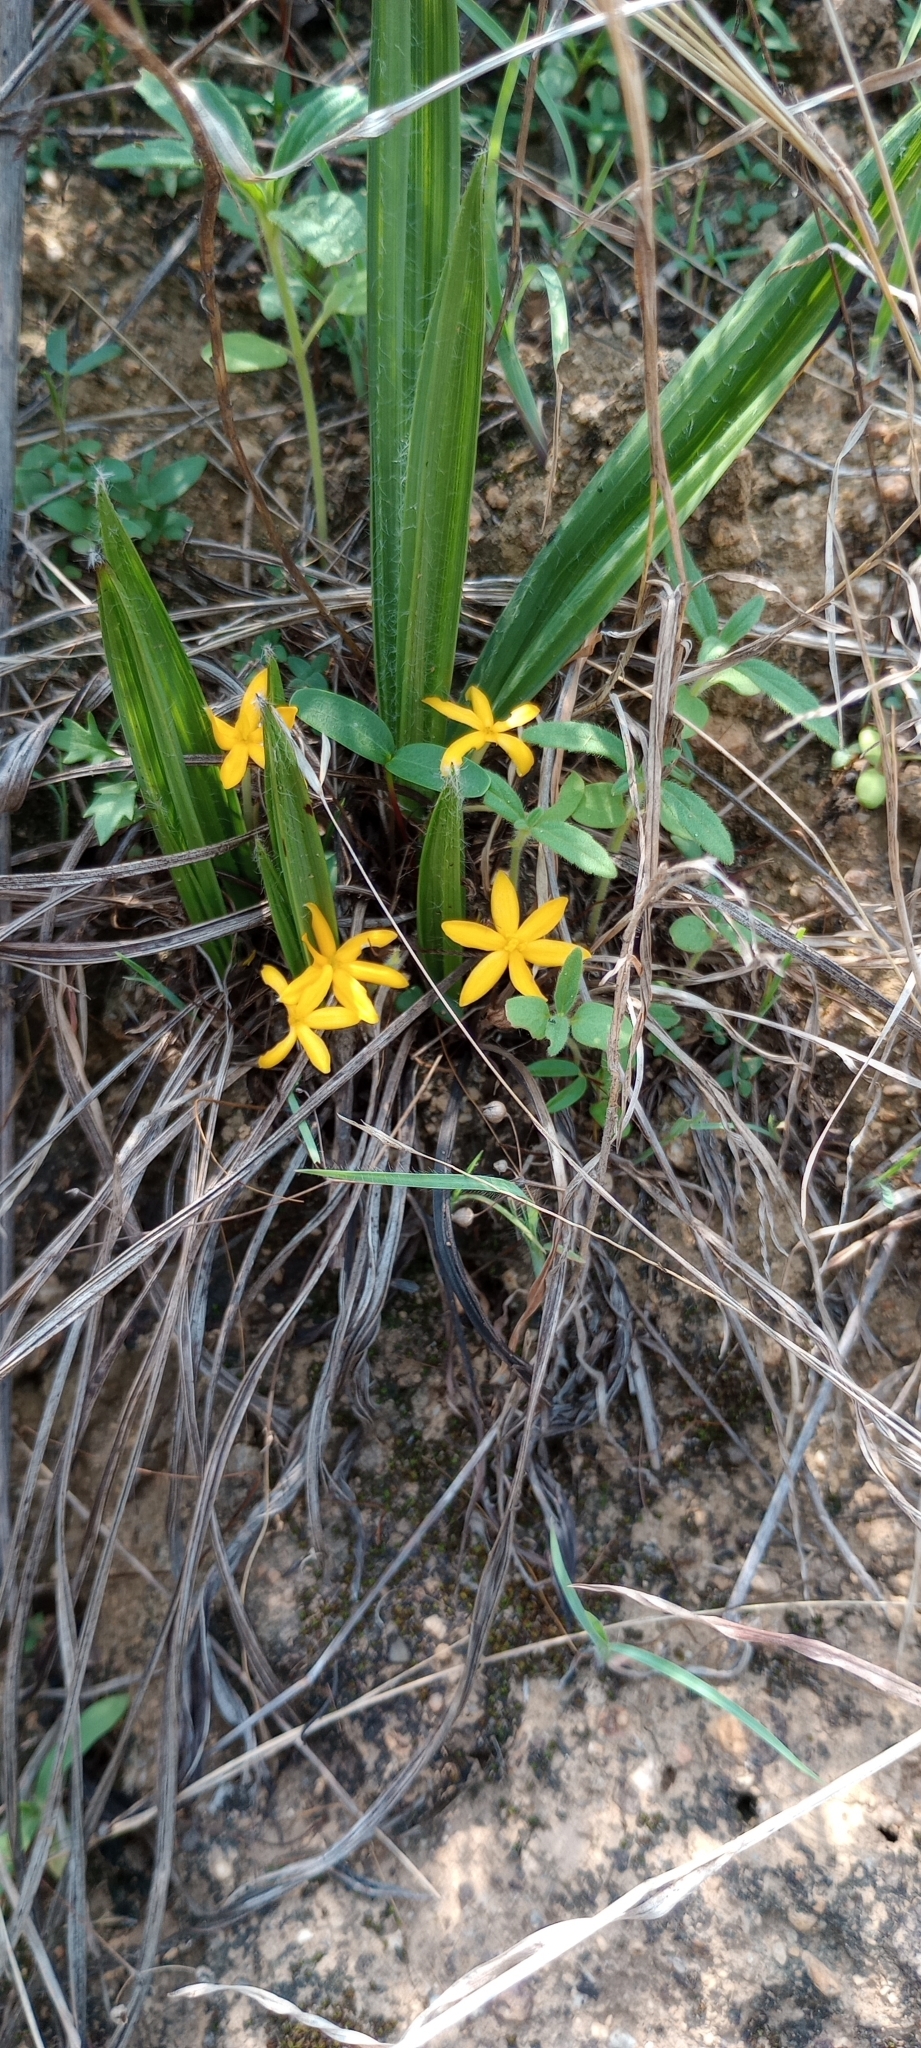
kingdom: Plantae
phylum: Tracheophyta
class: Liliopsida
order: Asparagales
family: Hypoxidaceae
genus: Curculigo
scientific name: Curculigo orchioides
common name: Golden eye-grass
